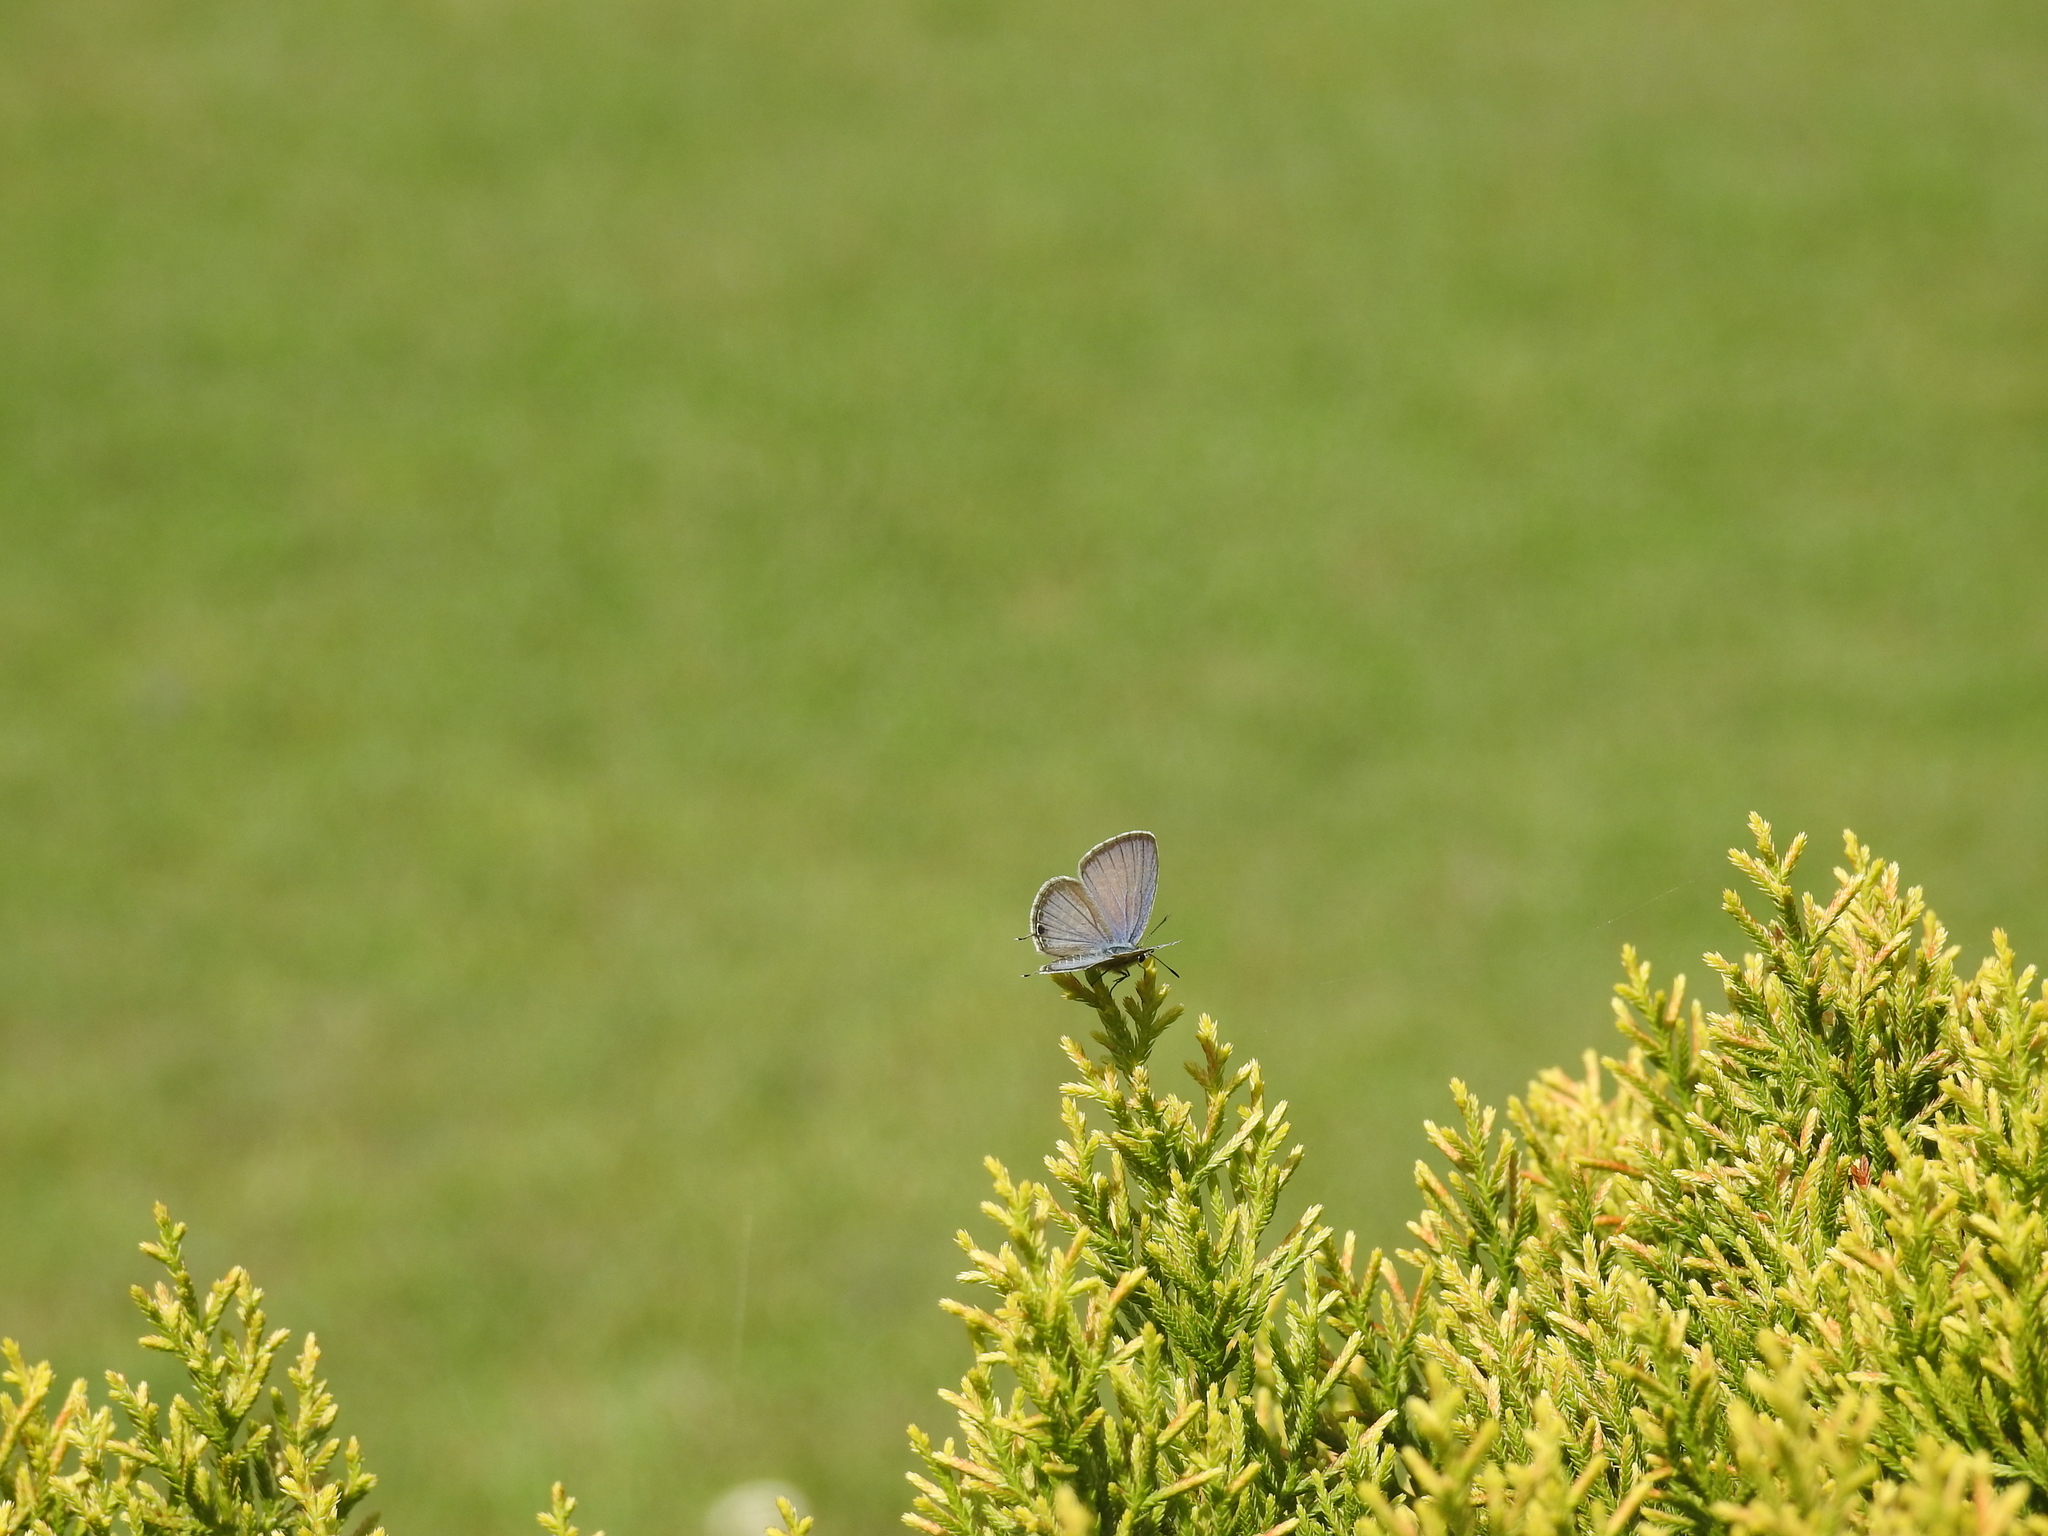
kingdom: Animalia
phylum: Arthropoda
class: Insecta
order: Lepidoptera
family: Lycaenidae
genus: Luthrodes
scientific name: Luthrodes pandava
